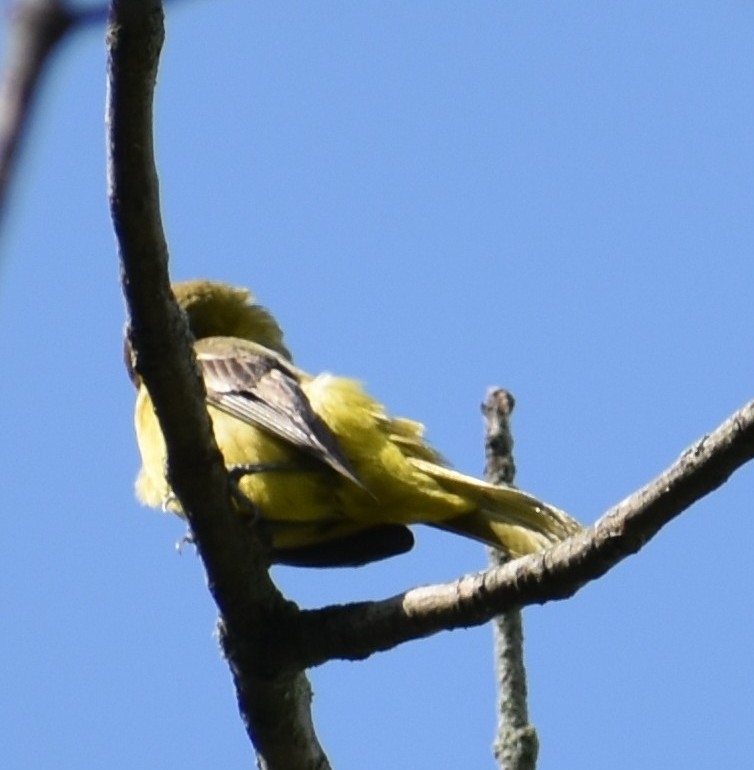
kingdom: Animalia
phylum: Chordata
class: Aves
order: Passeriformes
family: Icteridae
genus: Icterus
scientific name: Icterus spurius
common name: Orchard oriole
